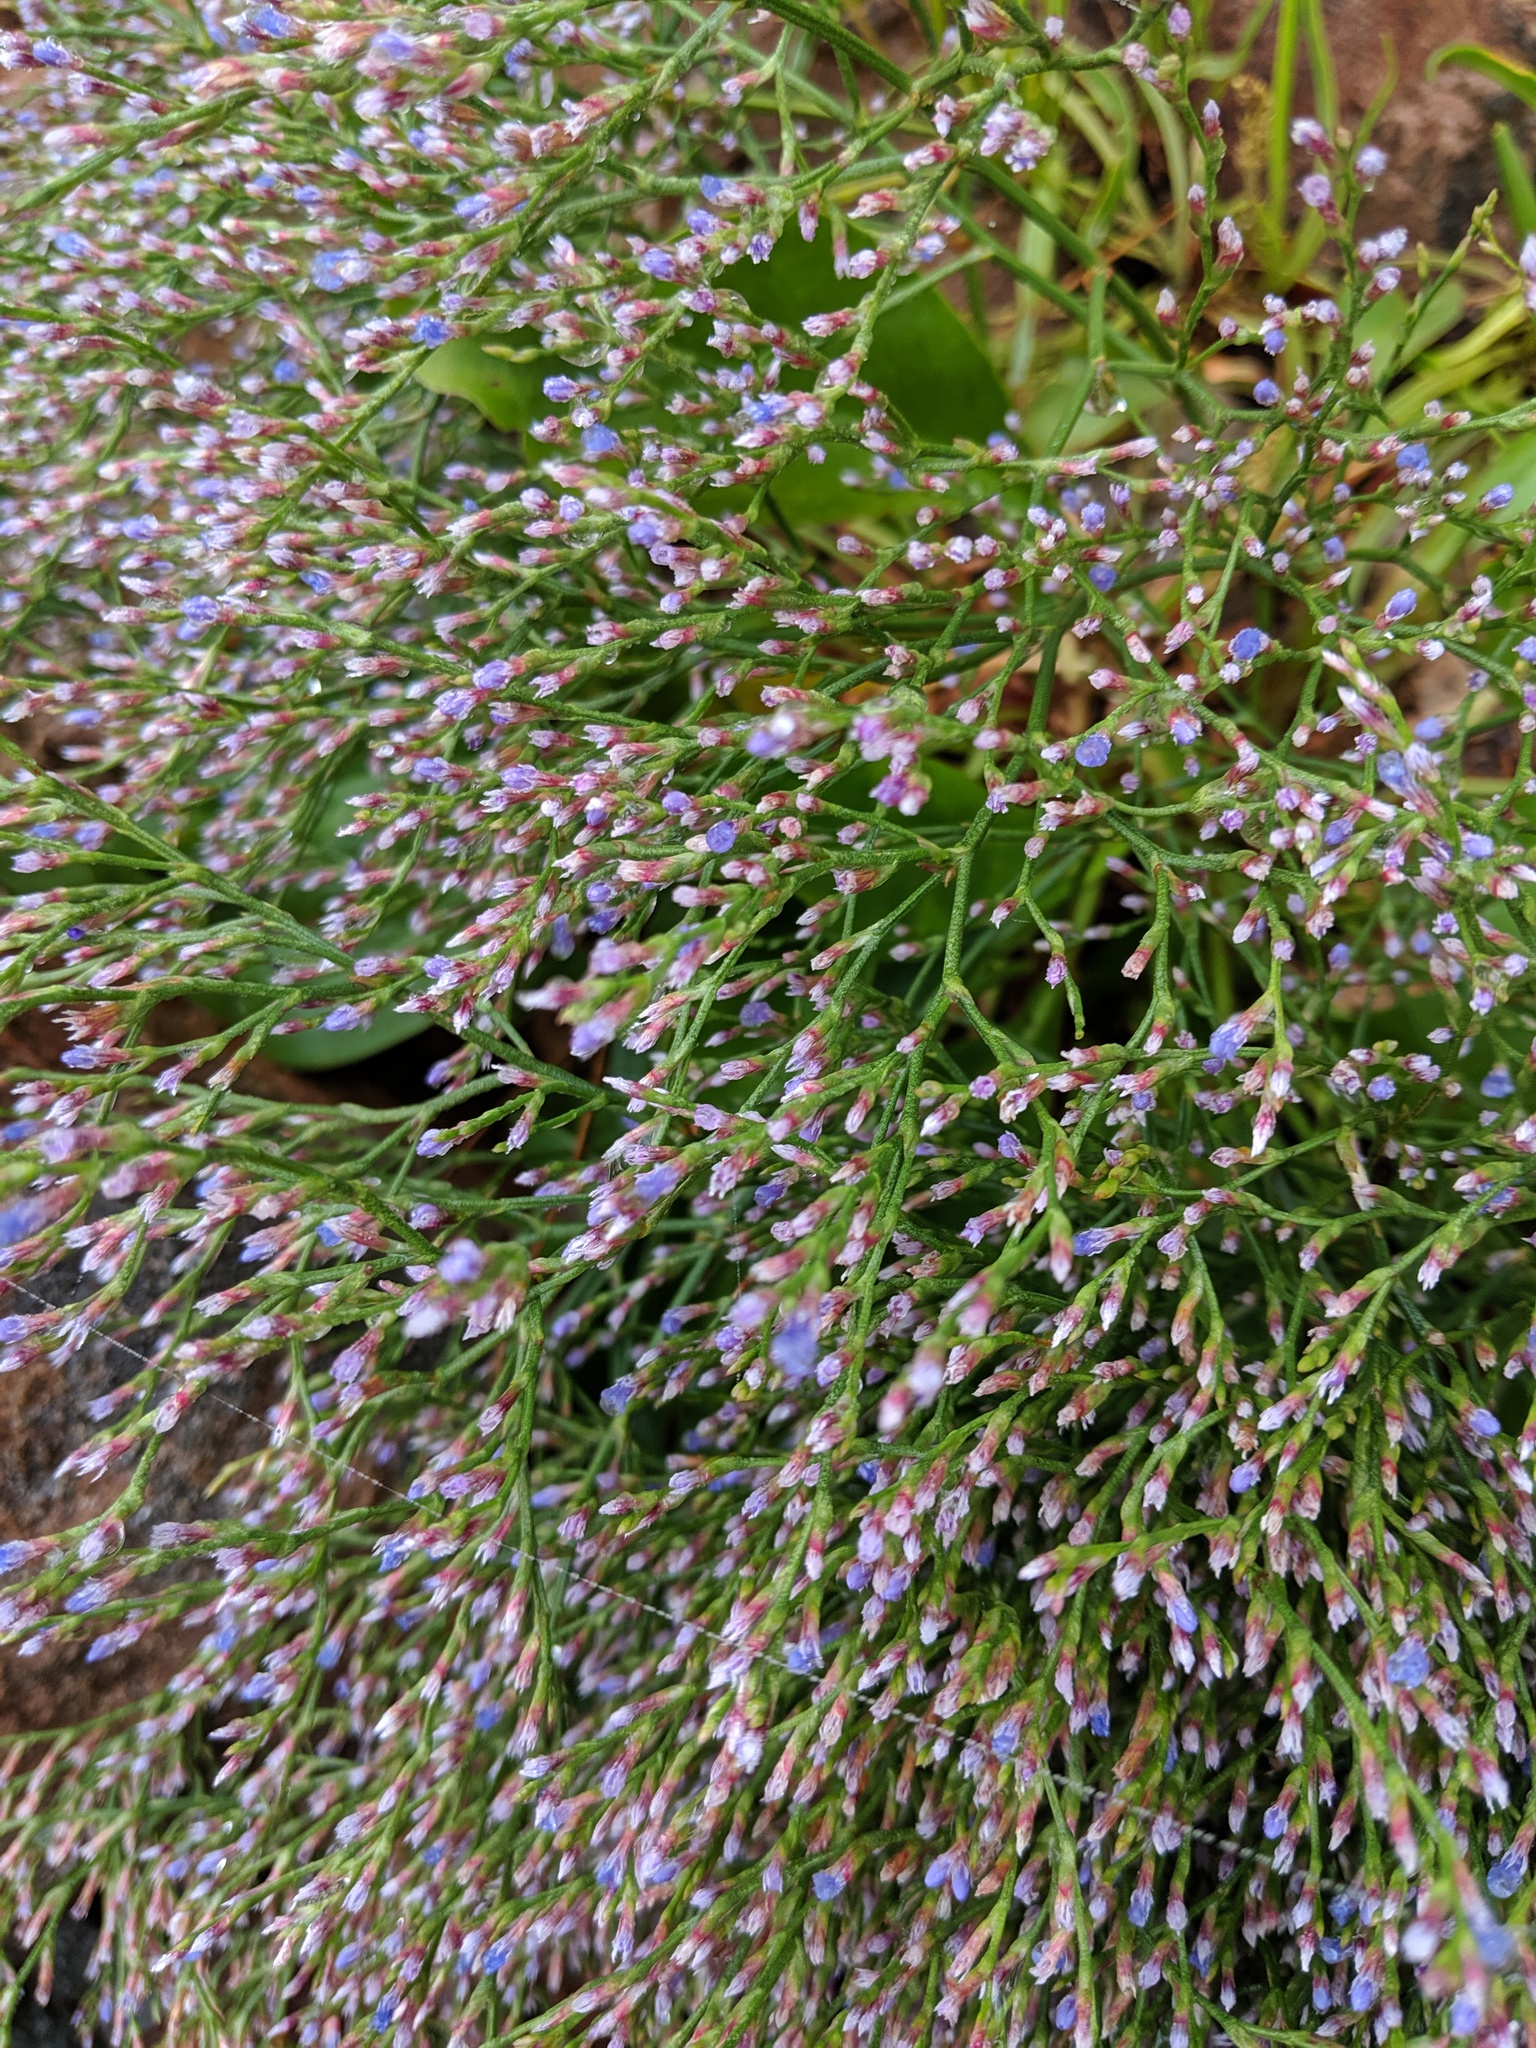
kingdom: Plantae
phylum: Tracheophyta
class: Magnoliopsida
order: Caryophyllales
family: Plumbaginaceae
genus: Limonium
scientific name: Limonium carolinianum
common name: Carolina sea lavender
